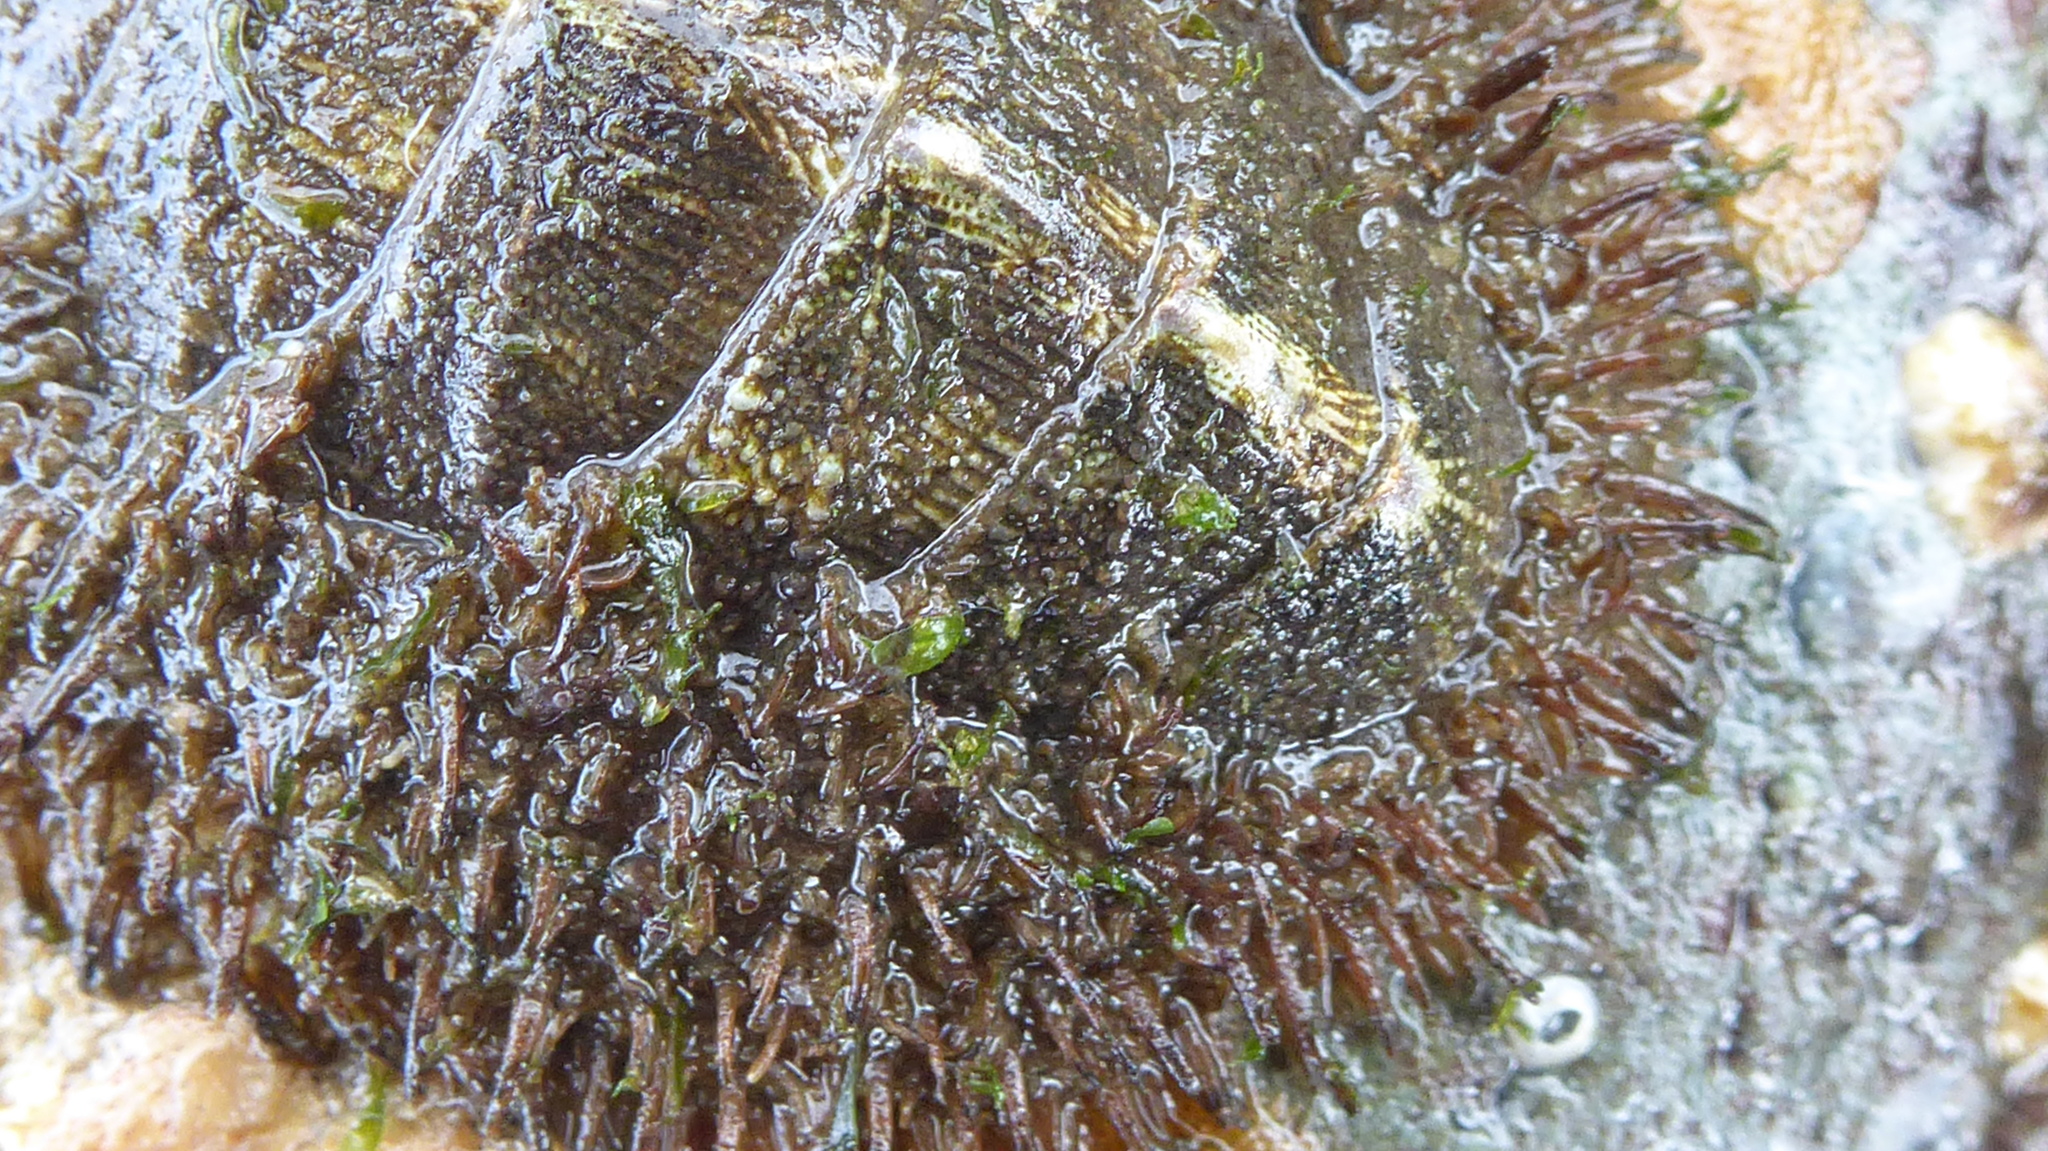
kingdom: Animalia
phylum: Mollusca
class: Polyplacophora
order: Chitonida
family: Mopaliidae
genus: Mopalia
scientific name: Mopalia muscosa
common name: Mossy chiton
